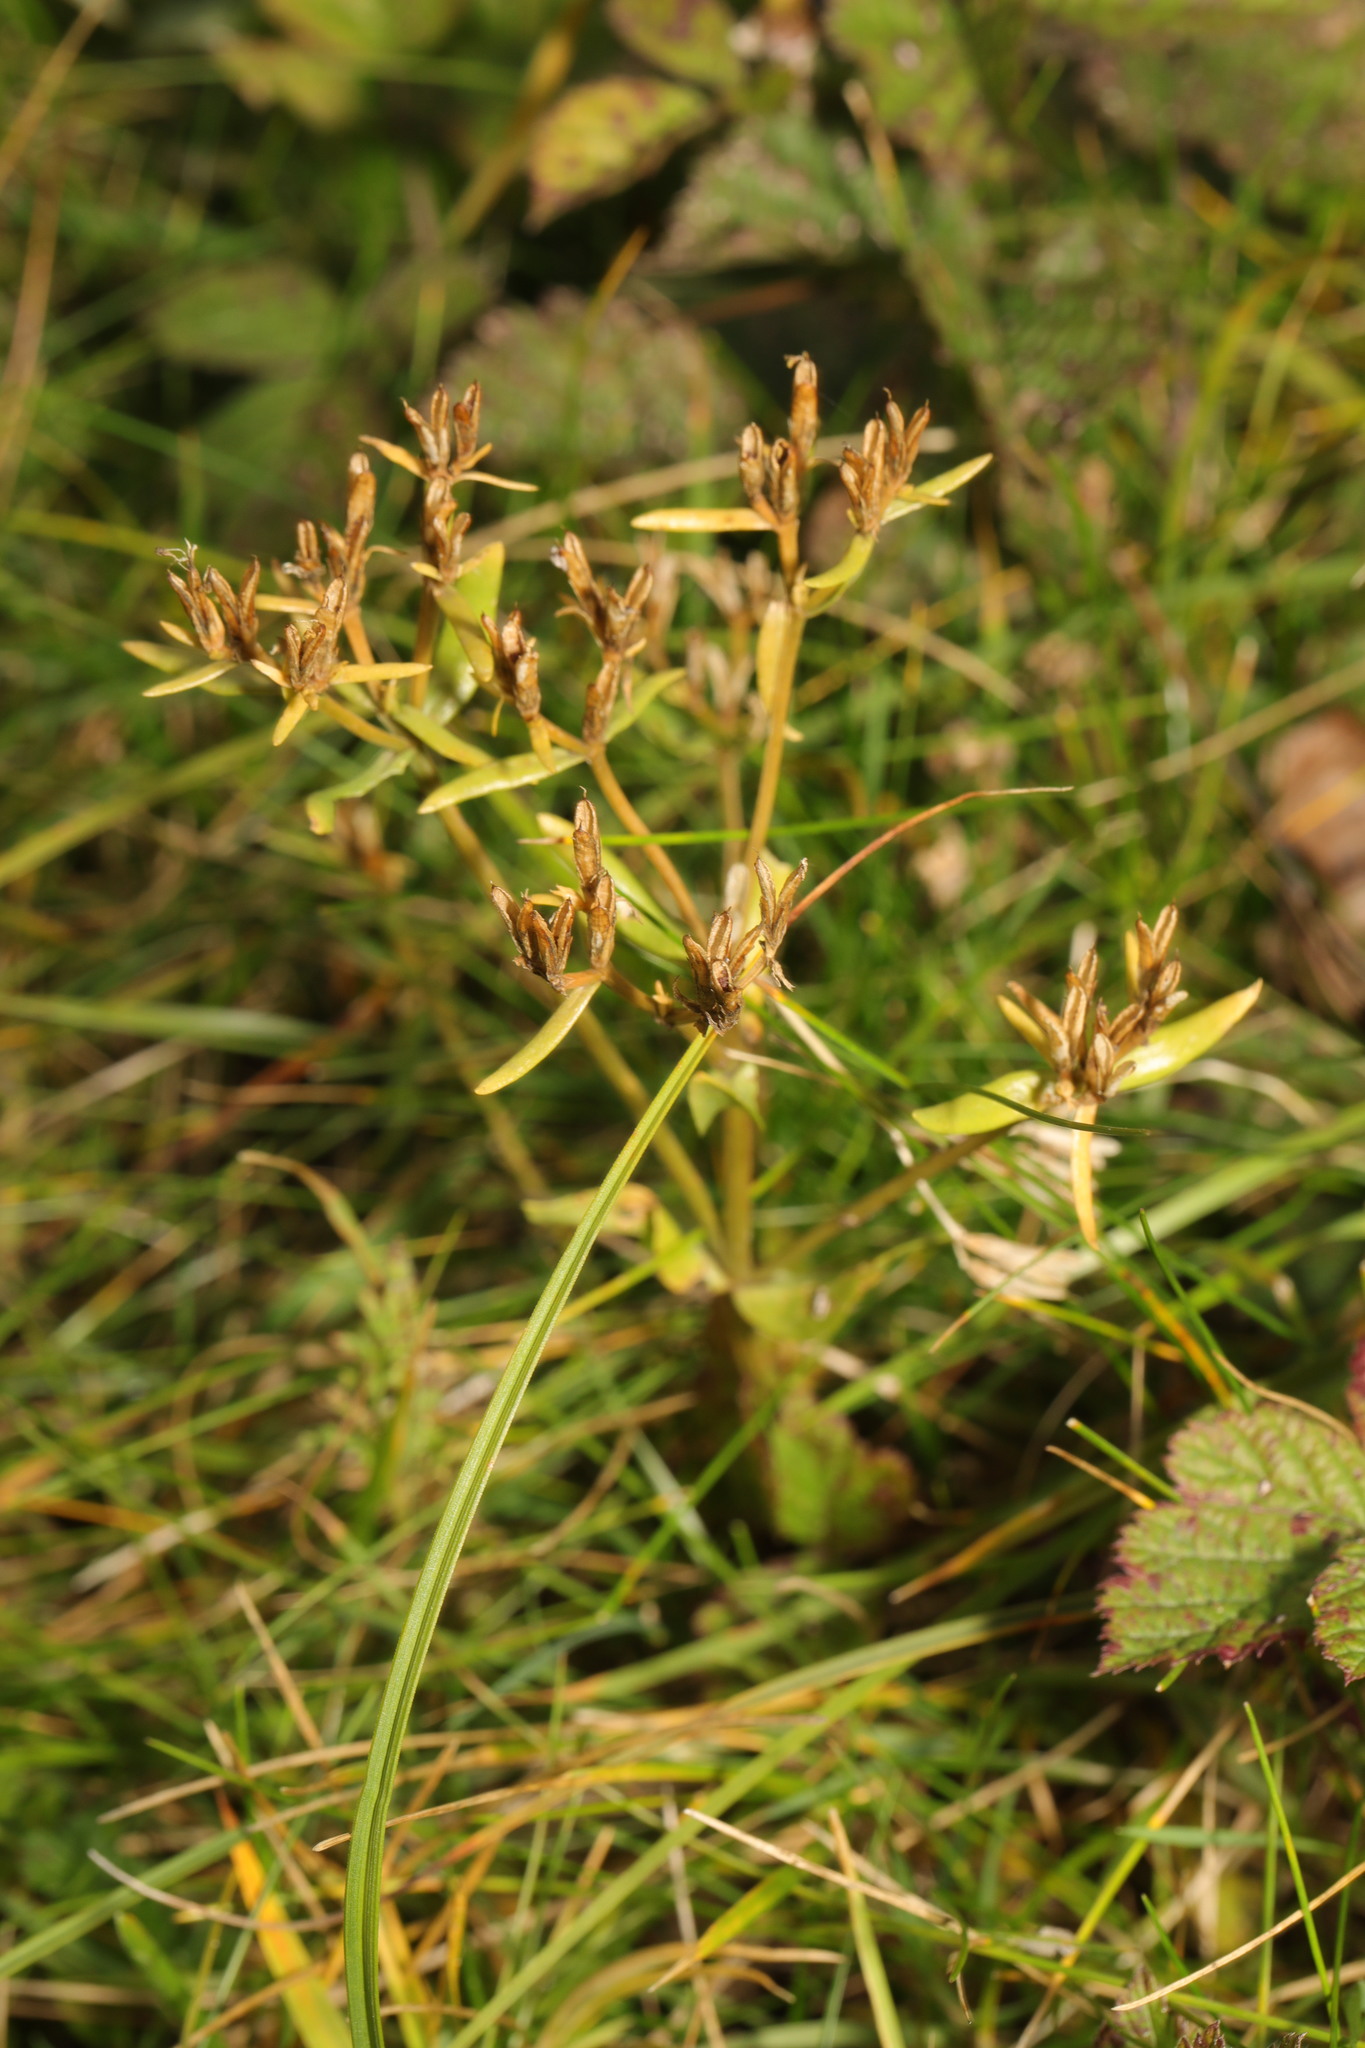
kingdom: Plantae
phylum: Tracheophyta
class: Magnoliopsida
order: Gentianales
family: Gentianaceae
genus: Centaurium
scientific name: Centaurium erythraea
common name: Common centaury
